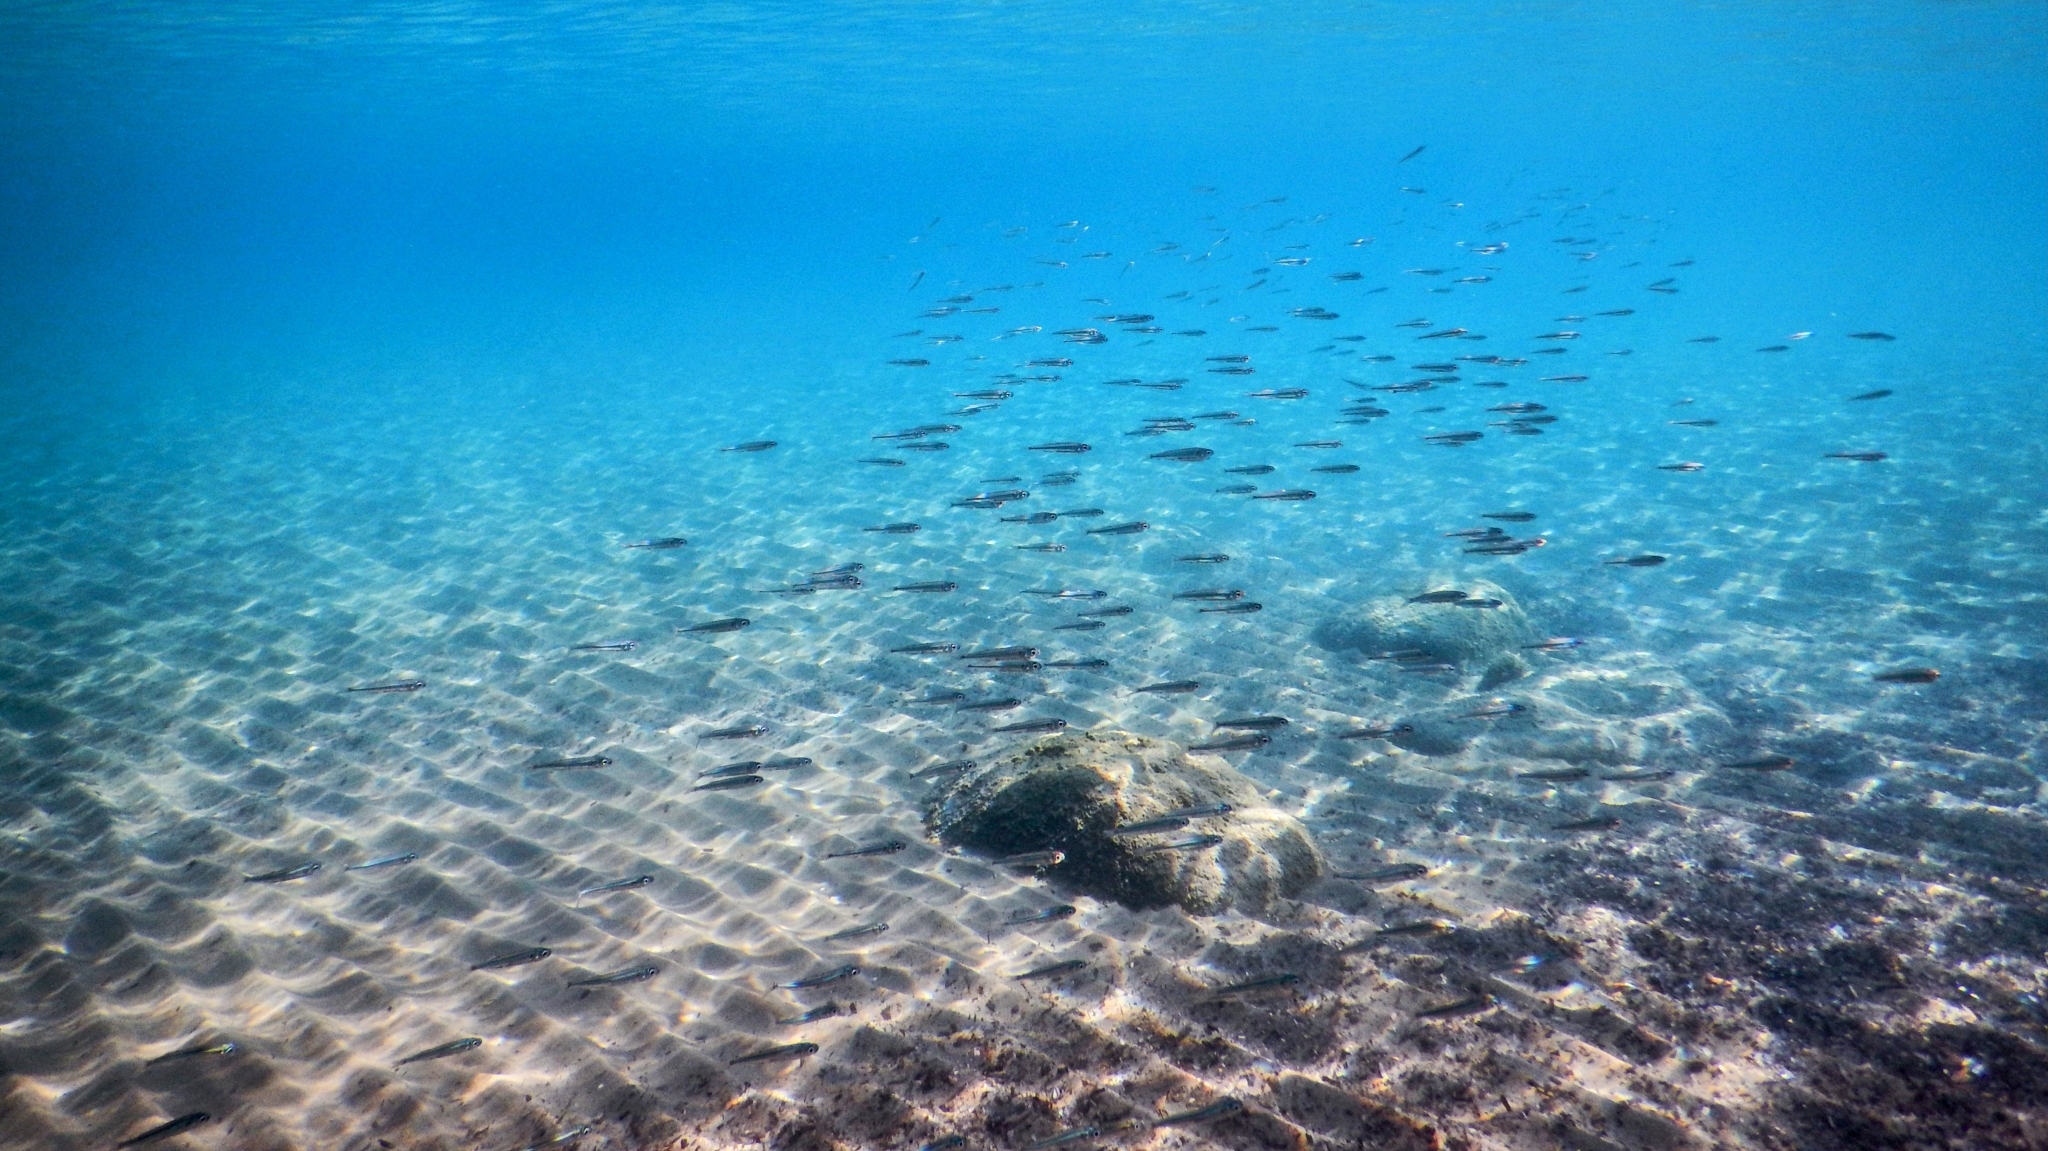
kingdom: Animalia
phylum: Chordata
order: Atheriniformes
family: Atherinidae
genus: Atherina
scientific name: Atherina
